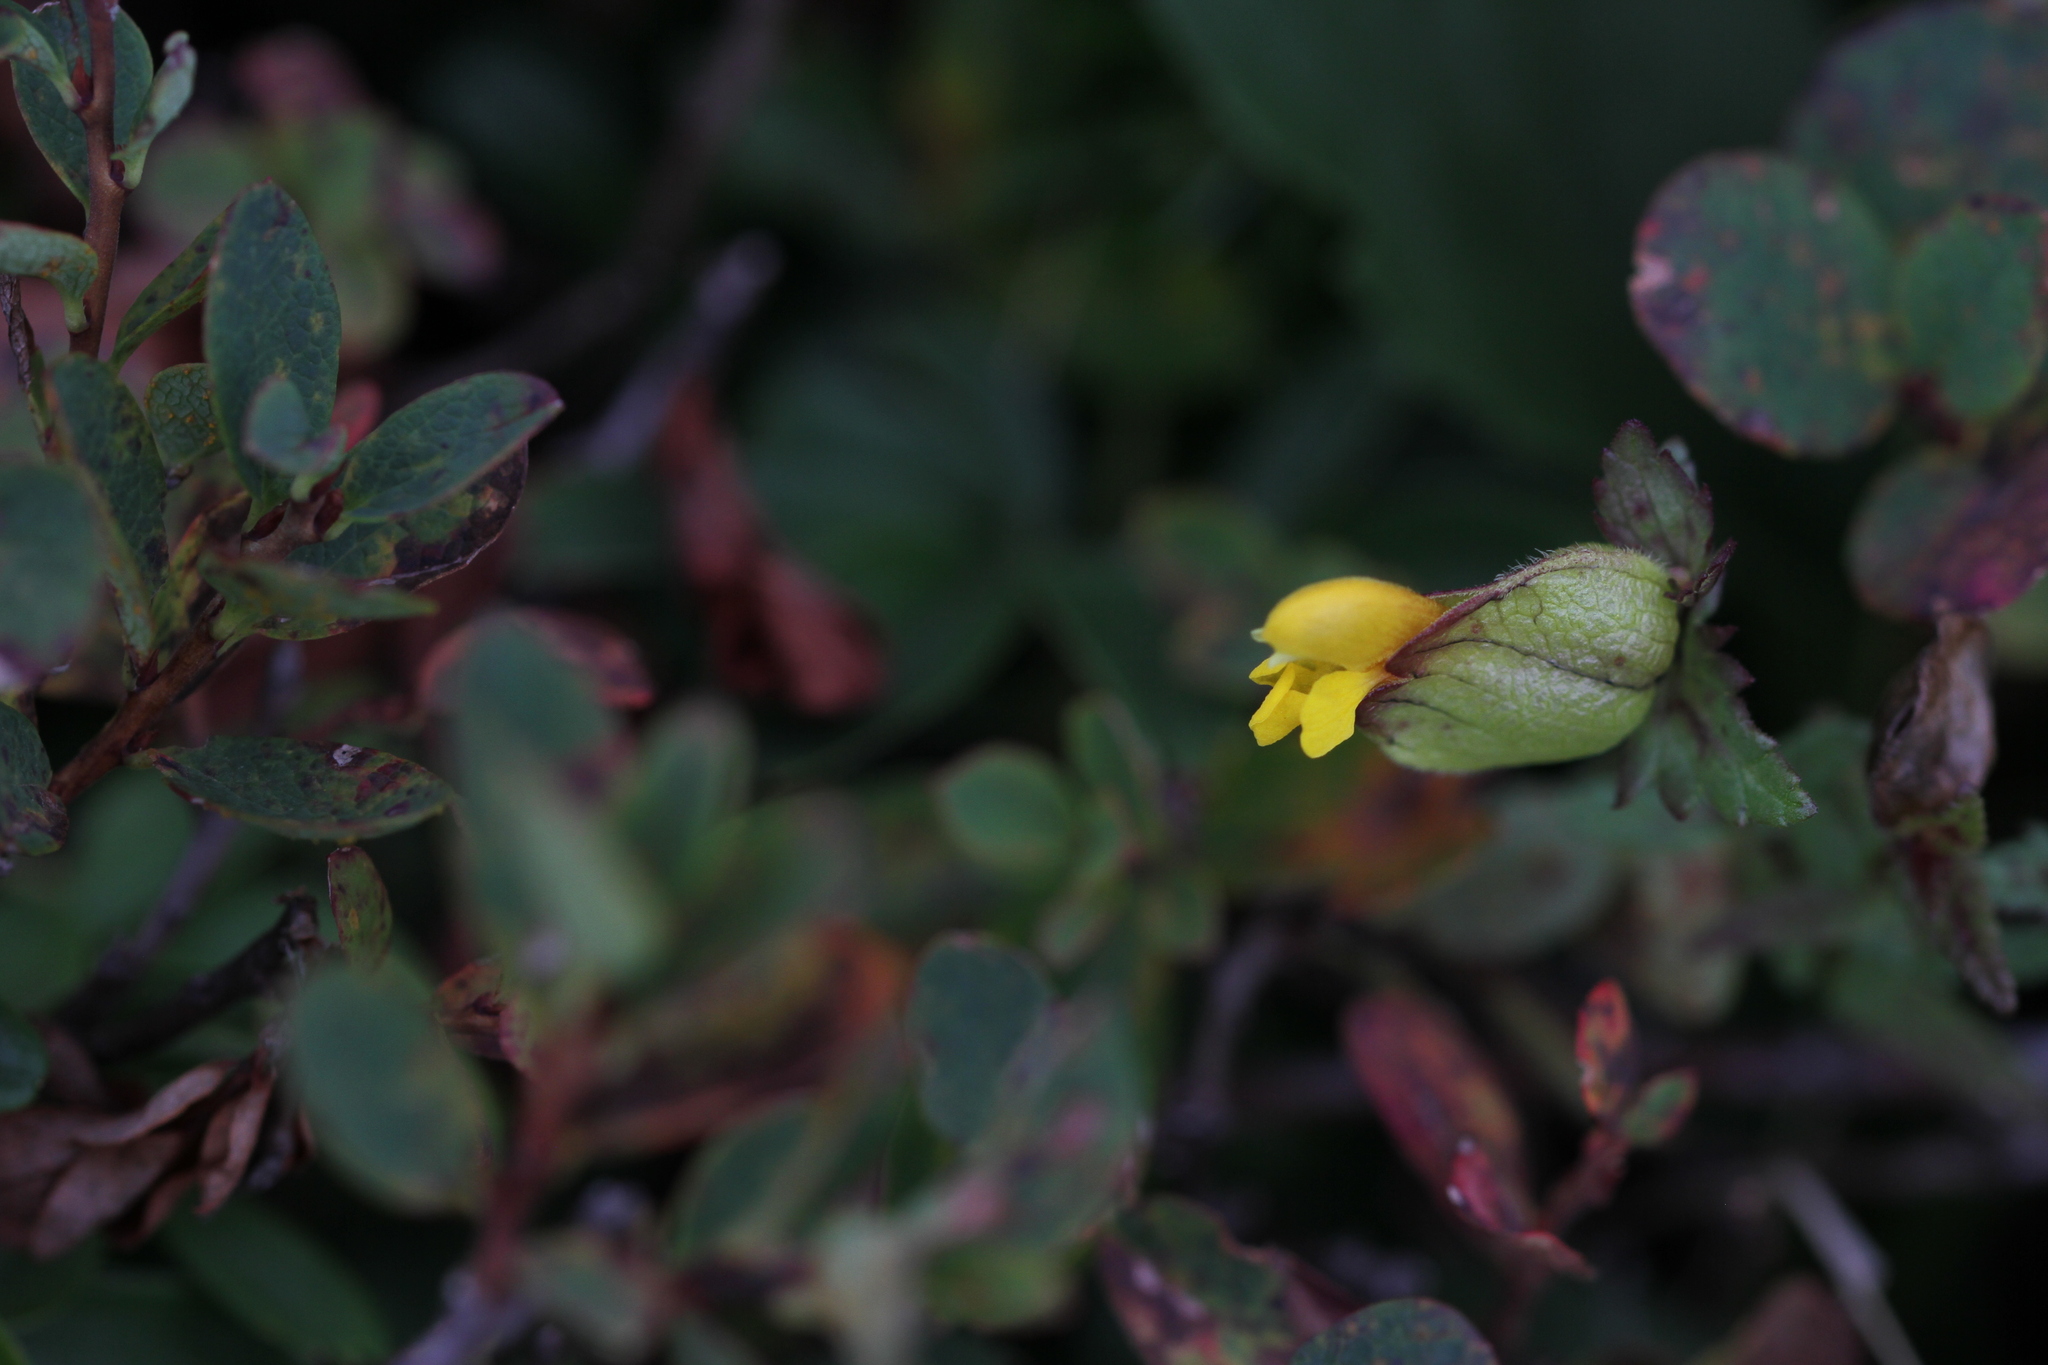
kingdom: Plantae
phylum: Tracheophyta
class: Magnoliopsida
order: Lamiales
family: Orobanchaceae
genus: Rhinanthus
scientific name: Rhinanthus minor
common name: Yellow-rattle
